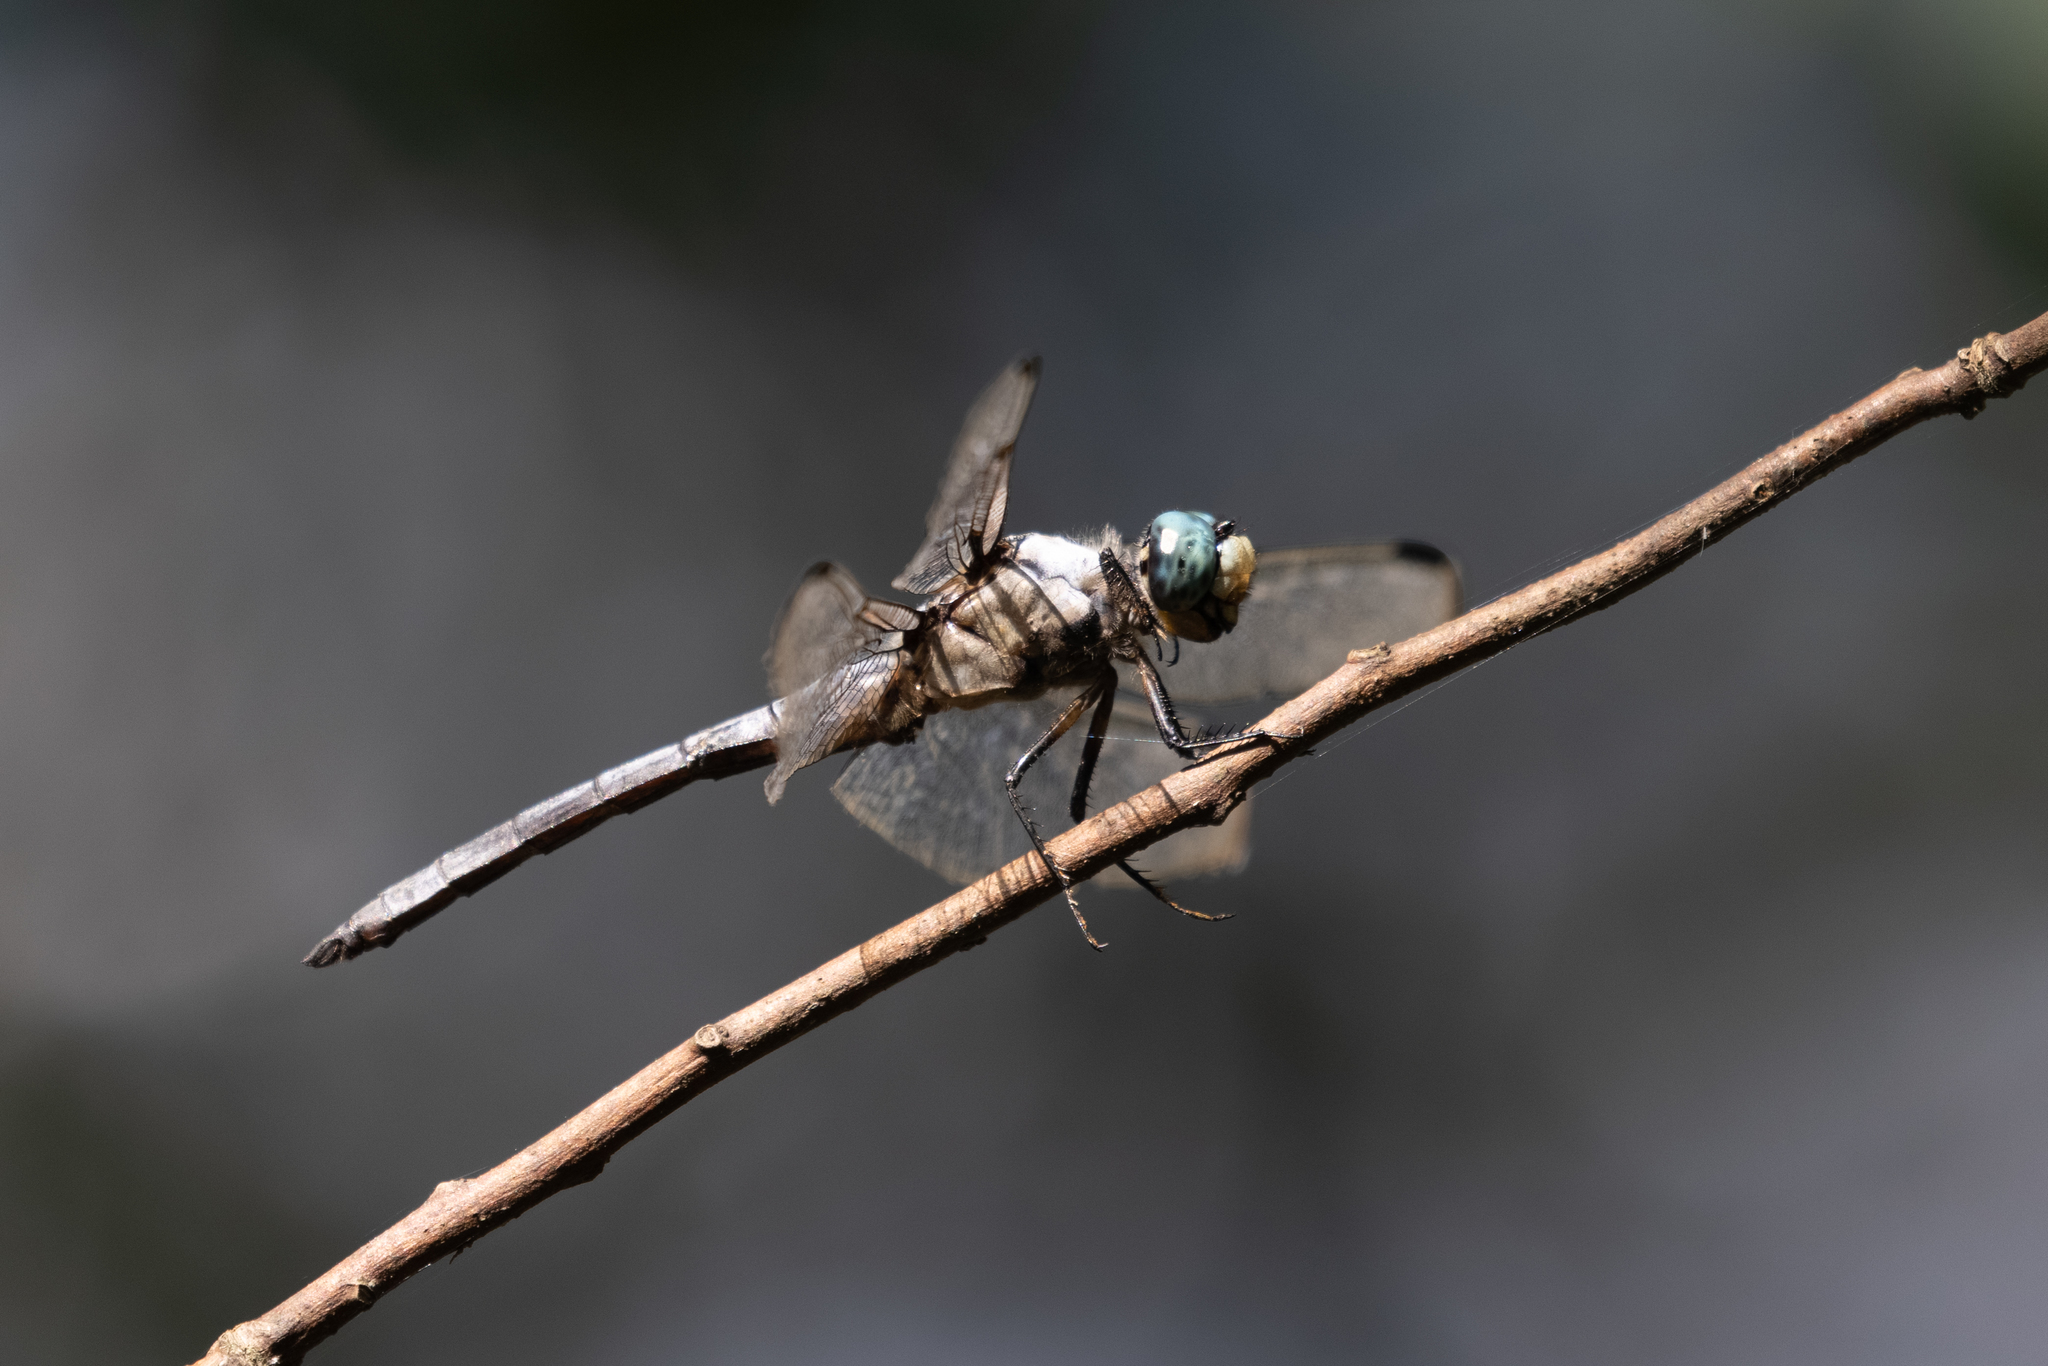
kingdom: Animalia
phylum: Arthropoda
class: Insecta
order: Odonata
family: Libellulidae
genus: Libellula
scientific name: Libellula vibrans
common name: Great blue skimmer
